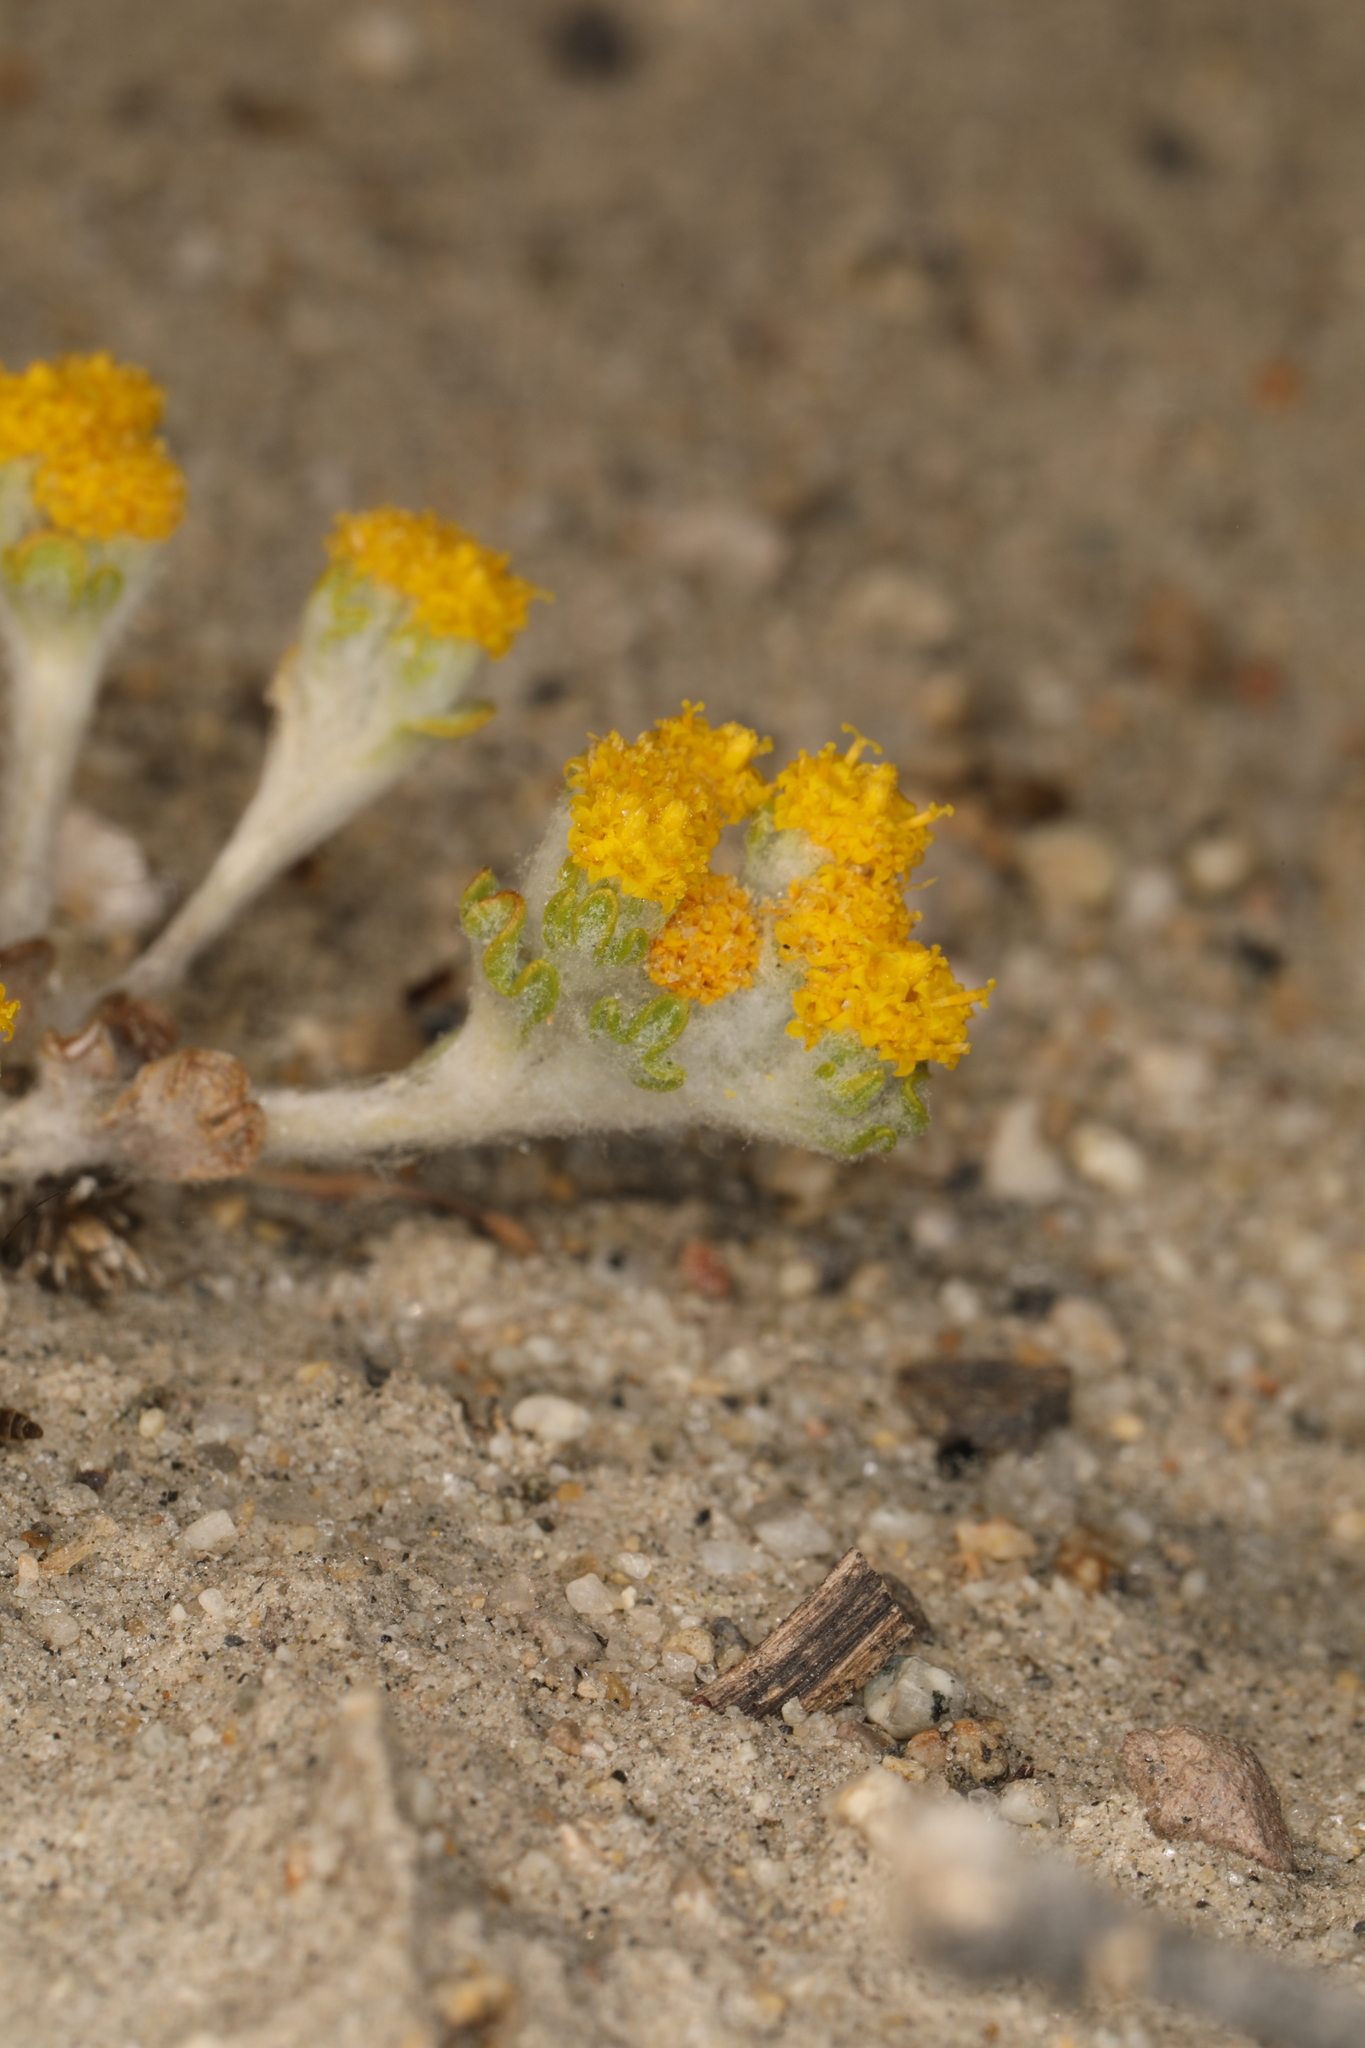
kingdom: Plantae
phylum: Tracheophyta
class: Magnoliopsida
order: Asterales
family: Asteraceae
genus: Eriophyllum
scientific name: Eriophyllum pringlei
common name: Pringle's woolly-sunflower
